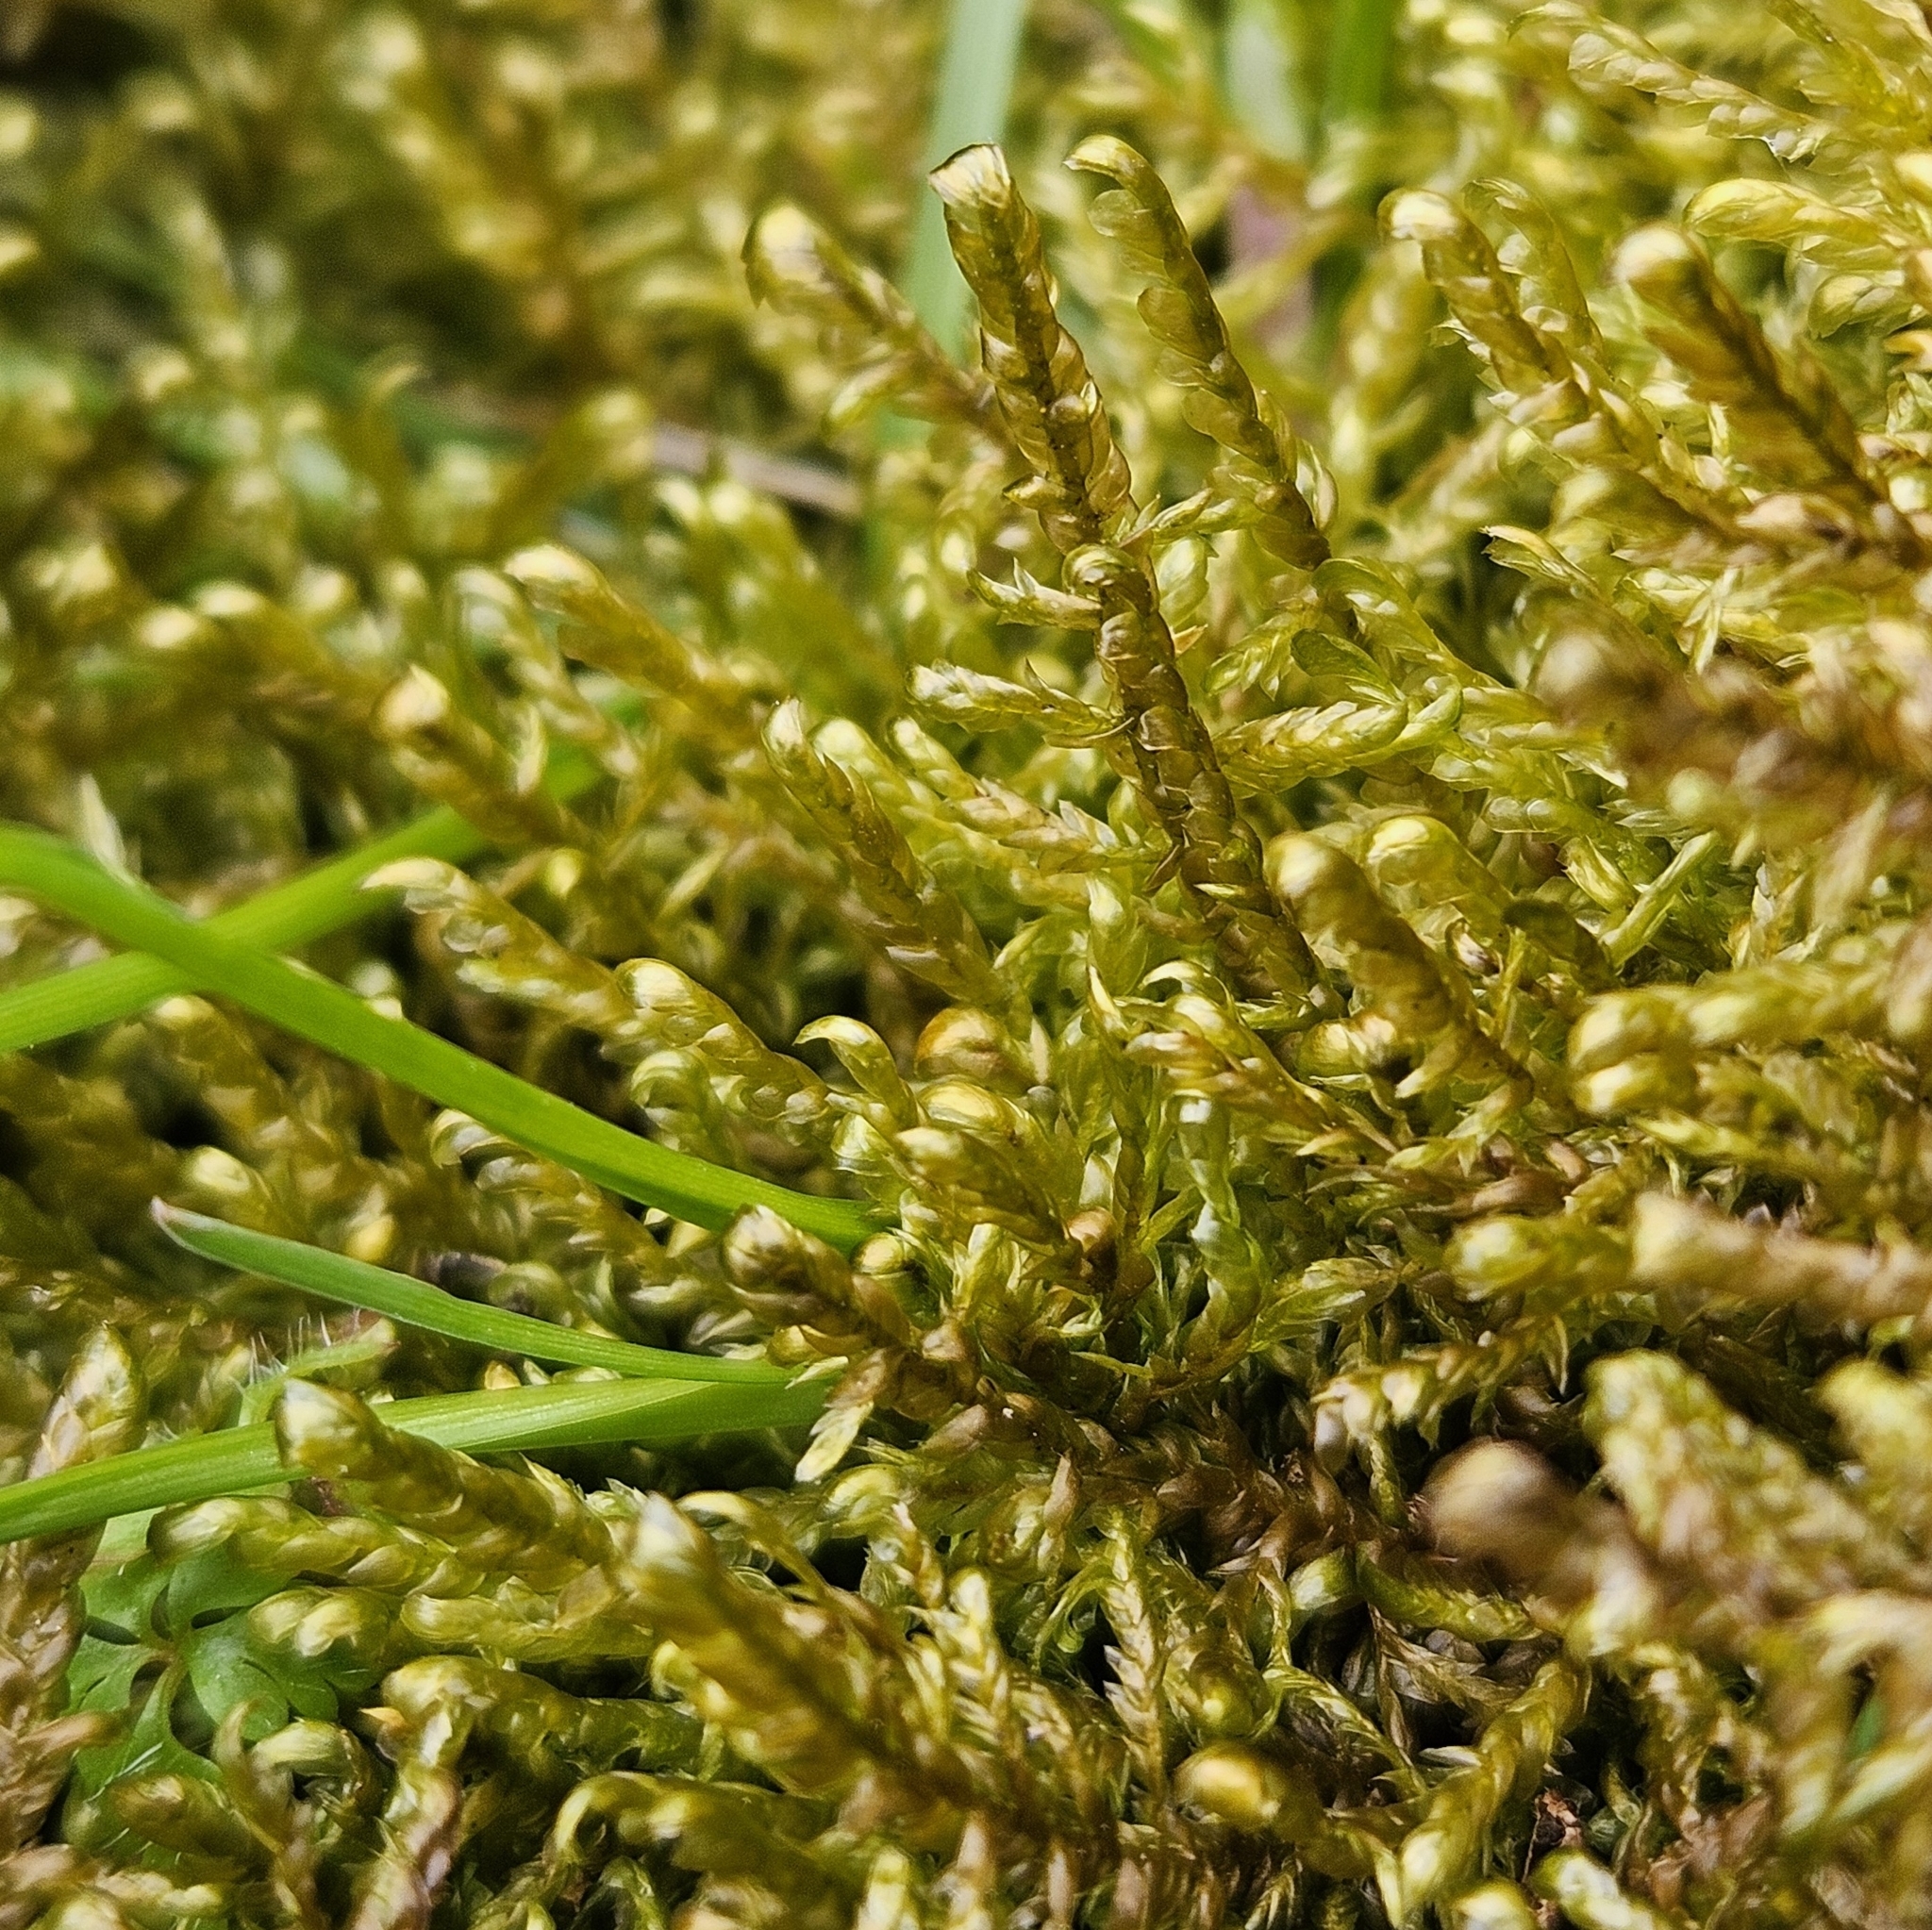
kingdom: Plantae
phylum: Bryophyta
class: Bryopsida
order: Hypnales
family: Neckeraceae
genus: Alleniella
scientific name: Alleniella complanata
